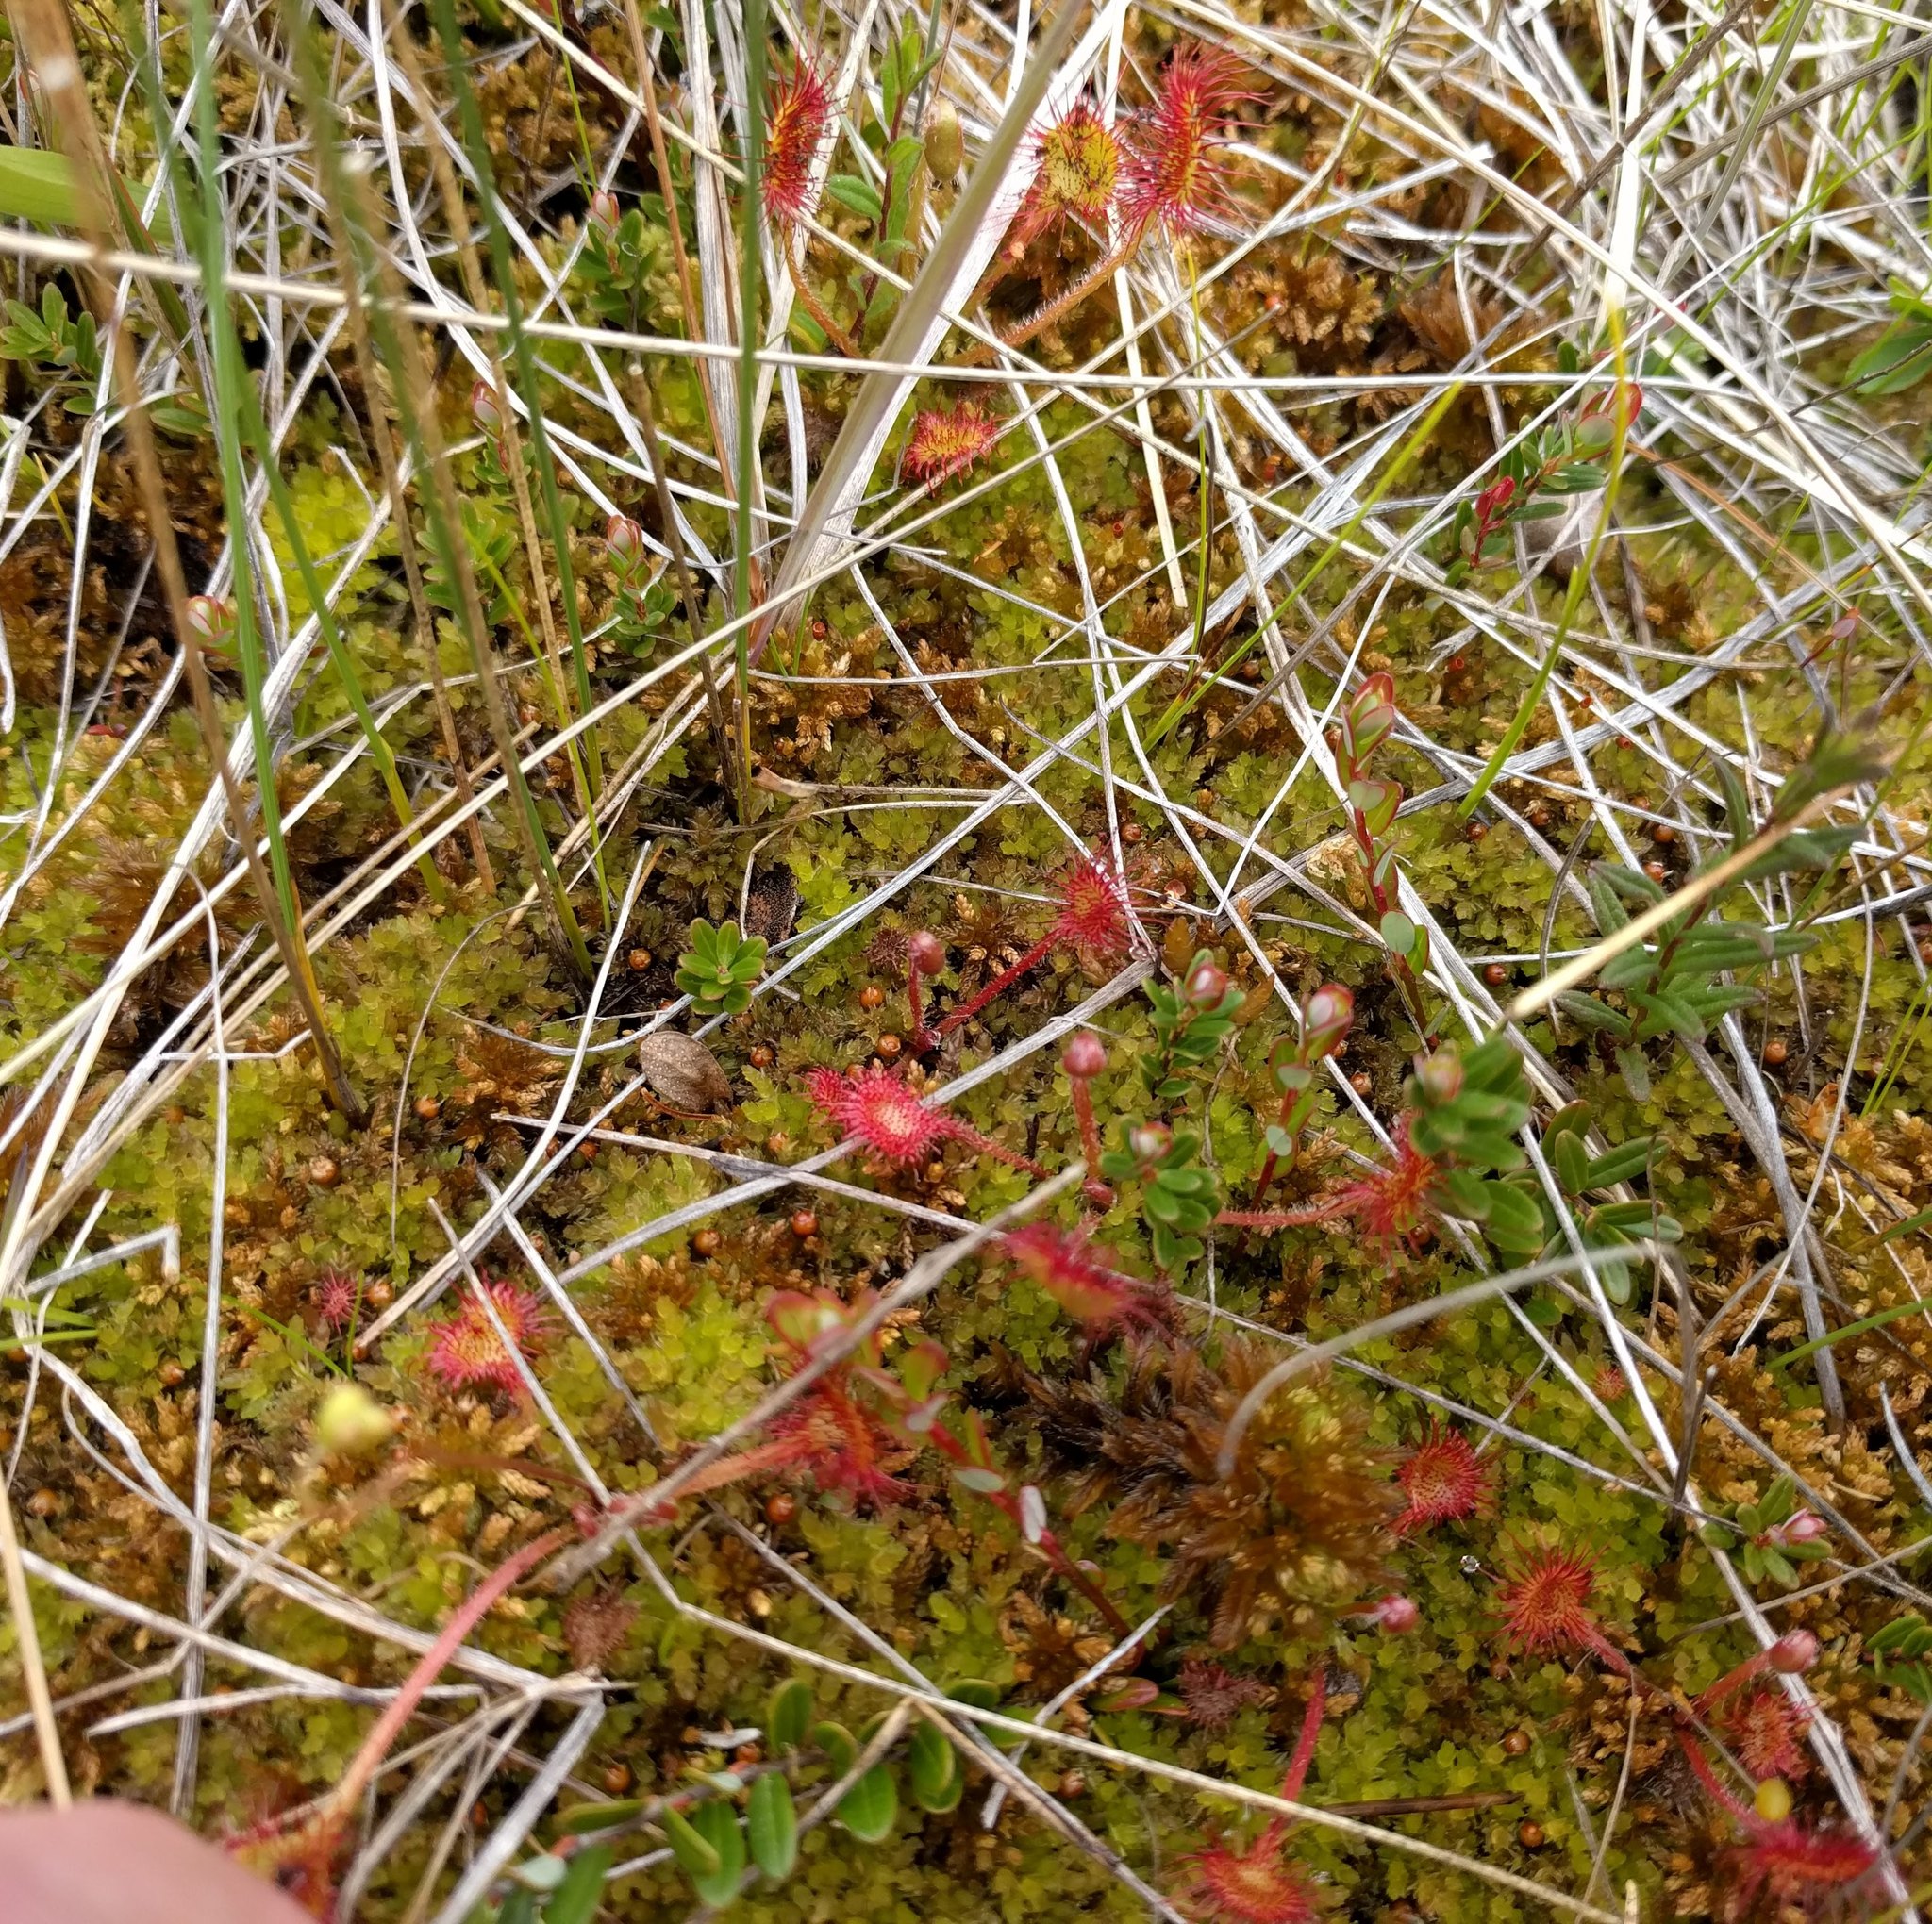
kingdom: Plantae
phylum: Tracheophyta
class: Magnoliopsida
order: Caryophyllales
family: Droseraceae
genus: Drosera
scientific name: Drosera rotundifolia
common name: Round-leaved sundew
